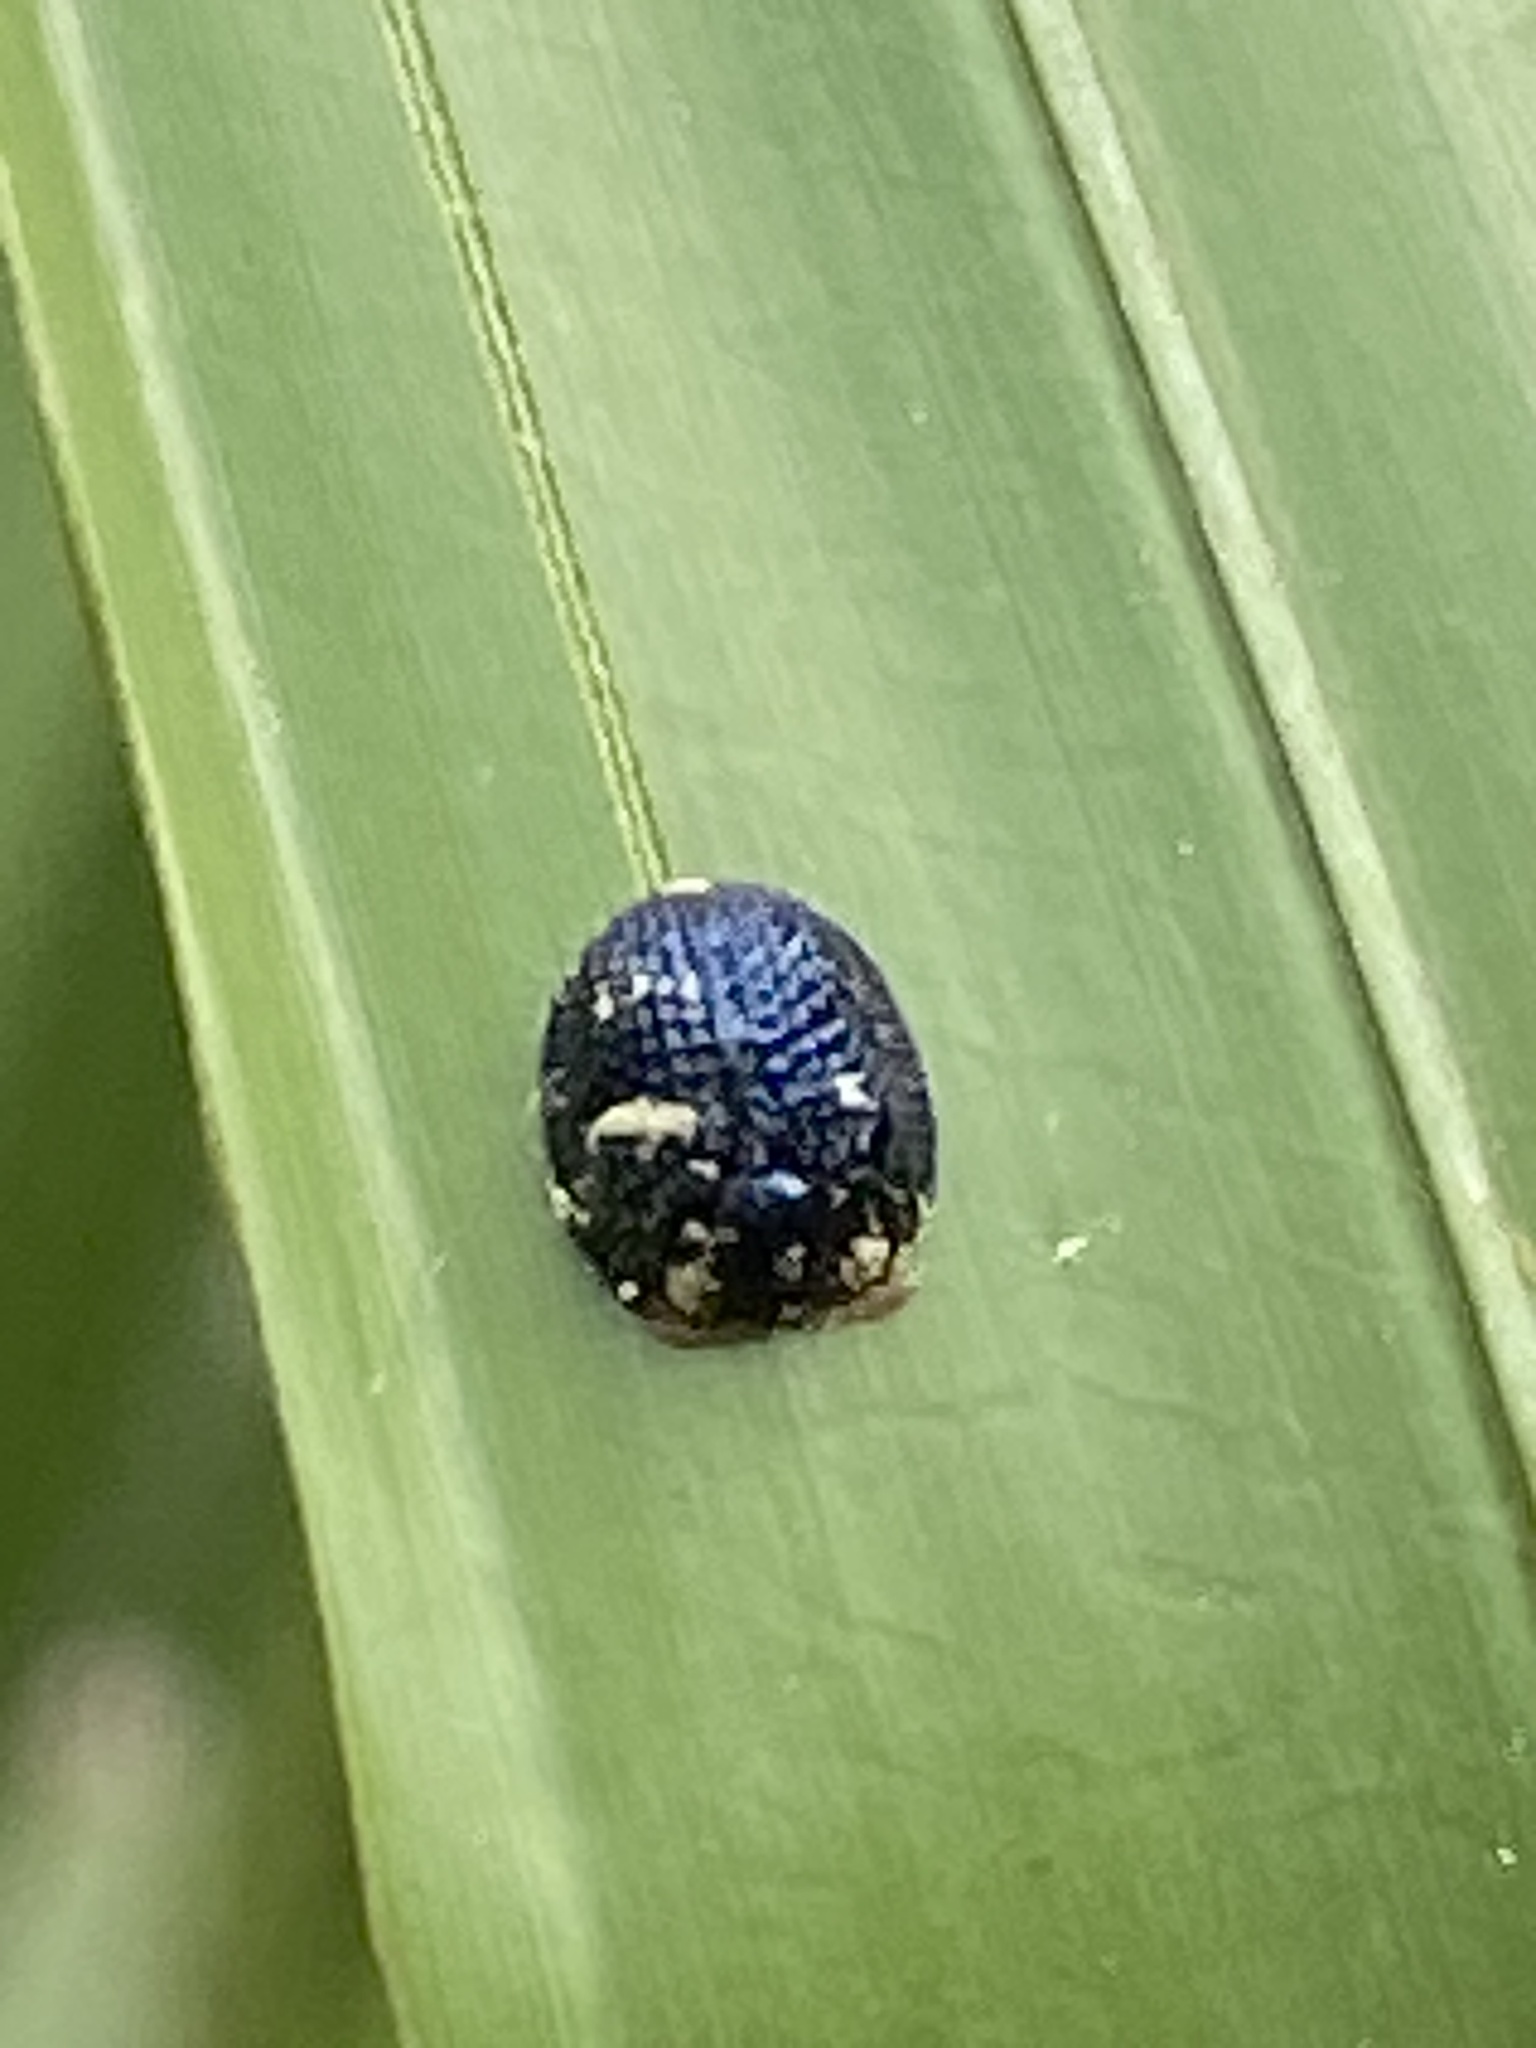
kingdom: Animalia
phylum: Arthropoda
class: Insecta
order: Coleoptera
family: Chrysomelidae
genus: Hemisphaerota
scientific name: Hemisphaerota cyanea
